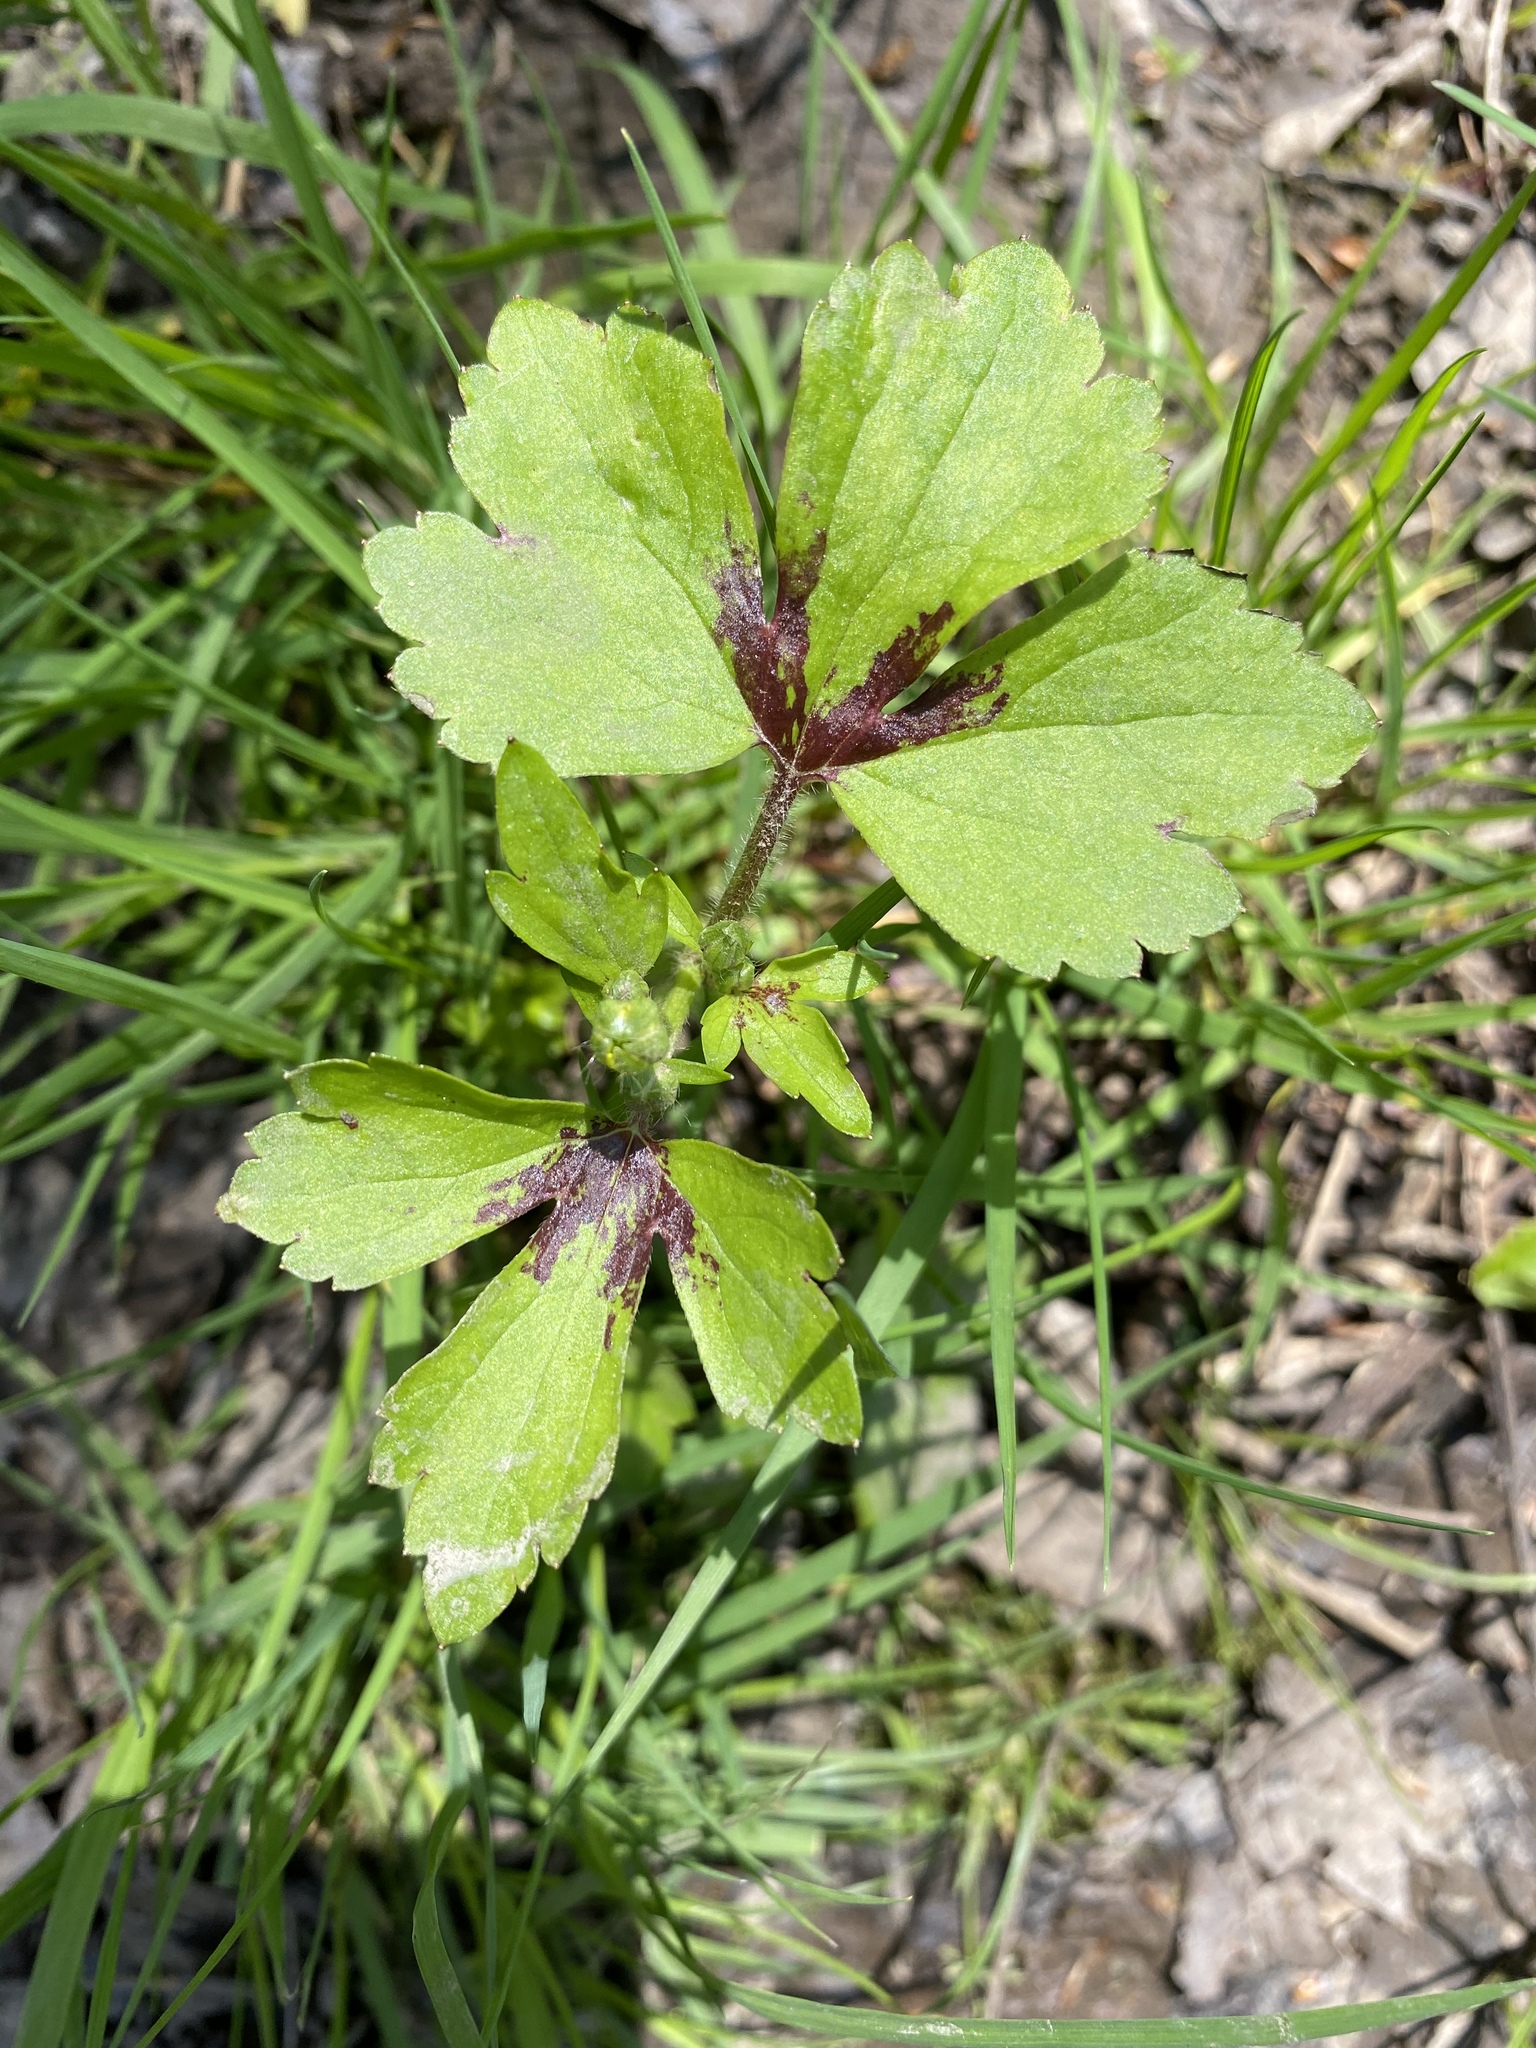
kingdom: Plantae
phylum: Tracheophyta
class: Magnoliopsida
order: Ranunculales
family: Ranunculaceae
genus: Ranunculus
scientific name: Ranunculus recurvatus
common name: Blisterwort
